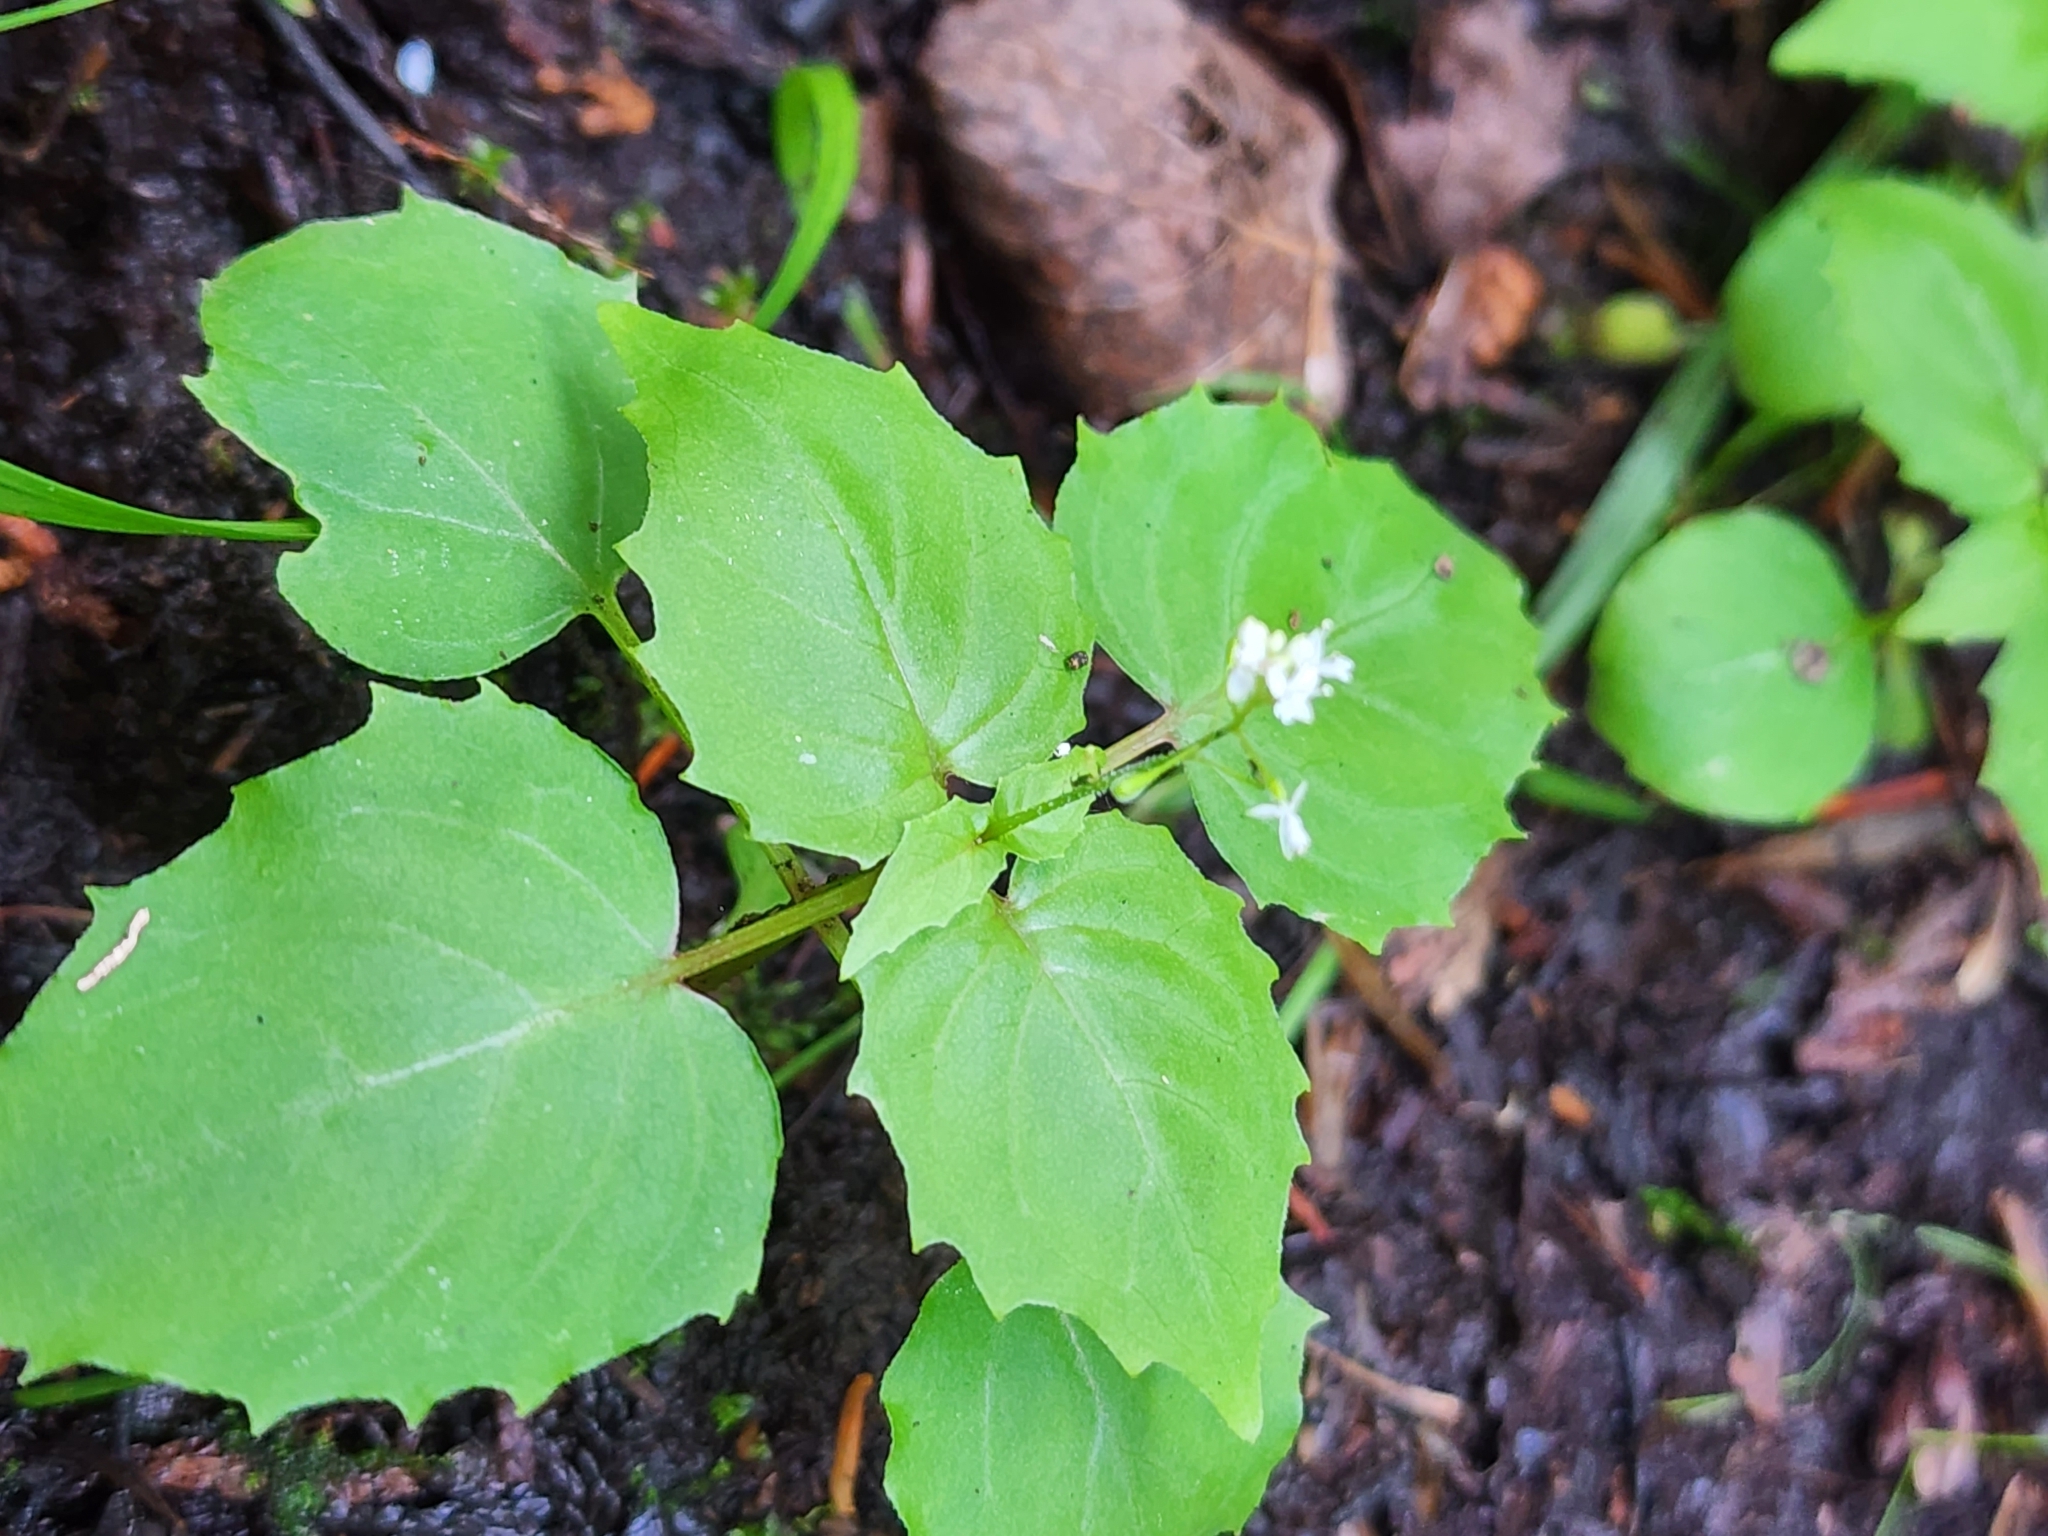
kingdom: Plantae
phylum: Tracheophyta
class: Magnoliopsida
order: Myrtales
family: Onagraceae
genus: Circaea
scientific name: Circaea alpina
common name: Alpine enchanter's-nightshade
